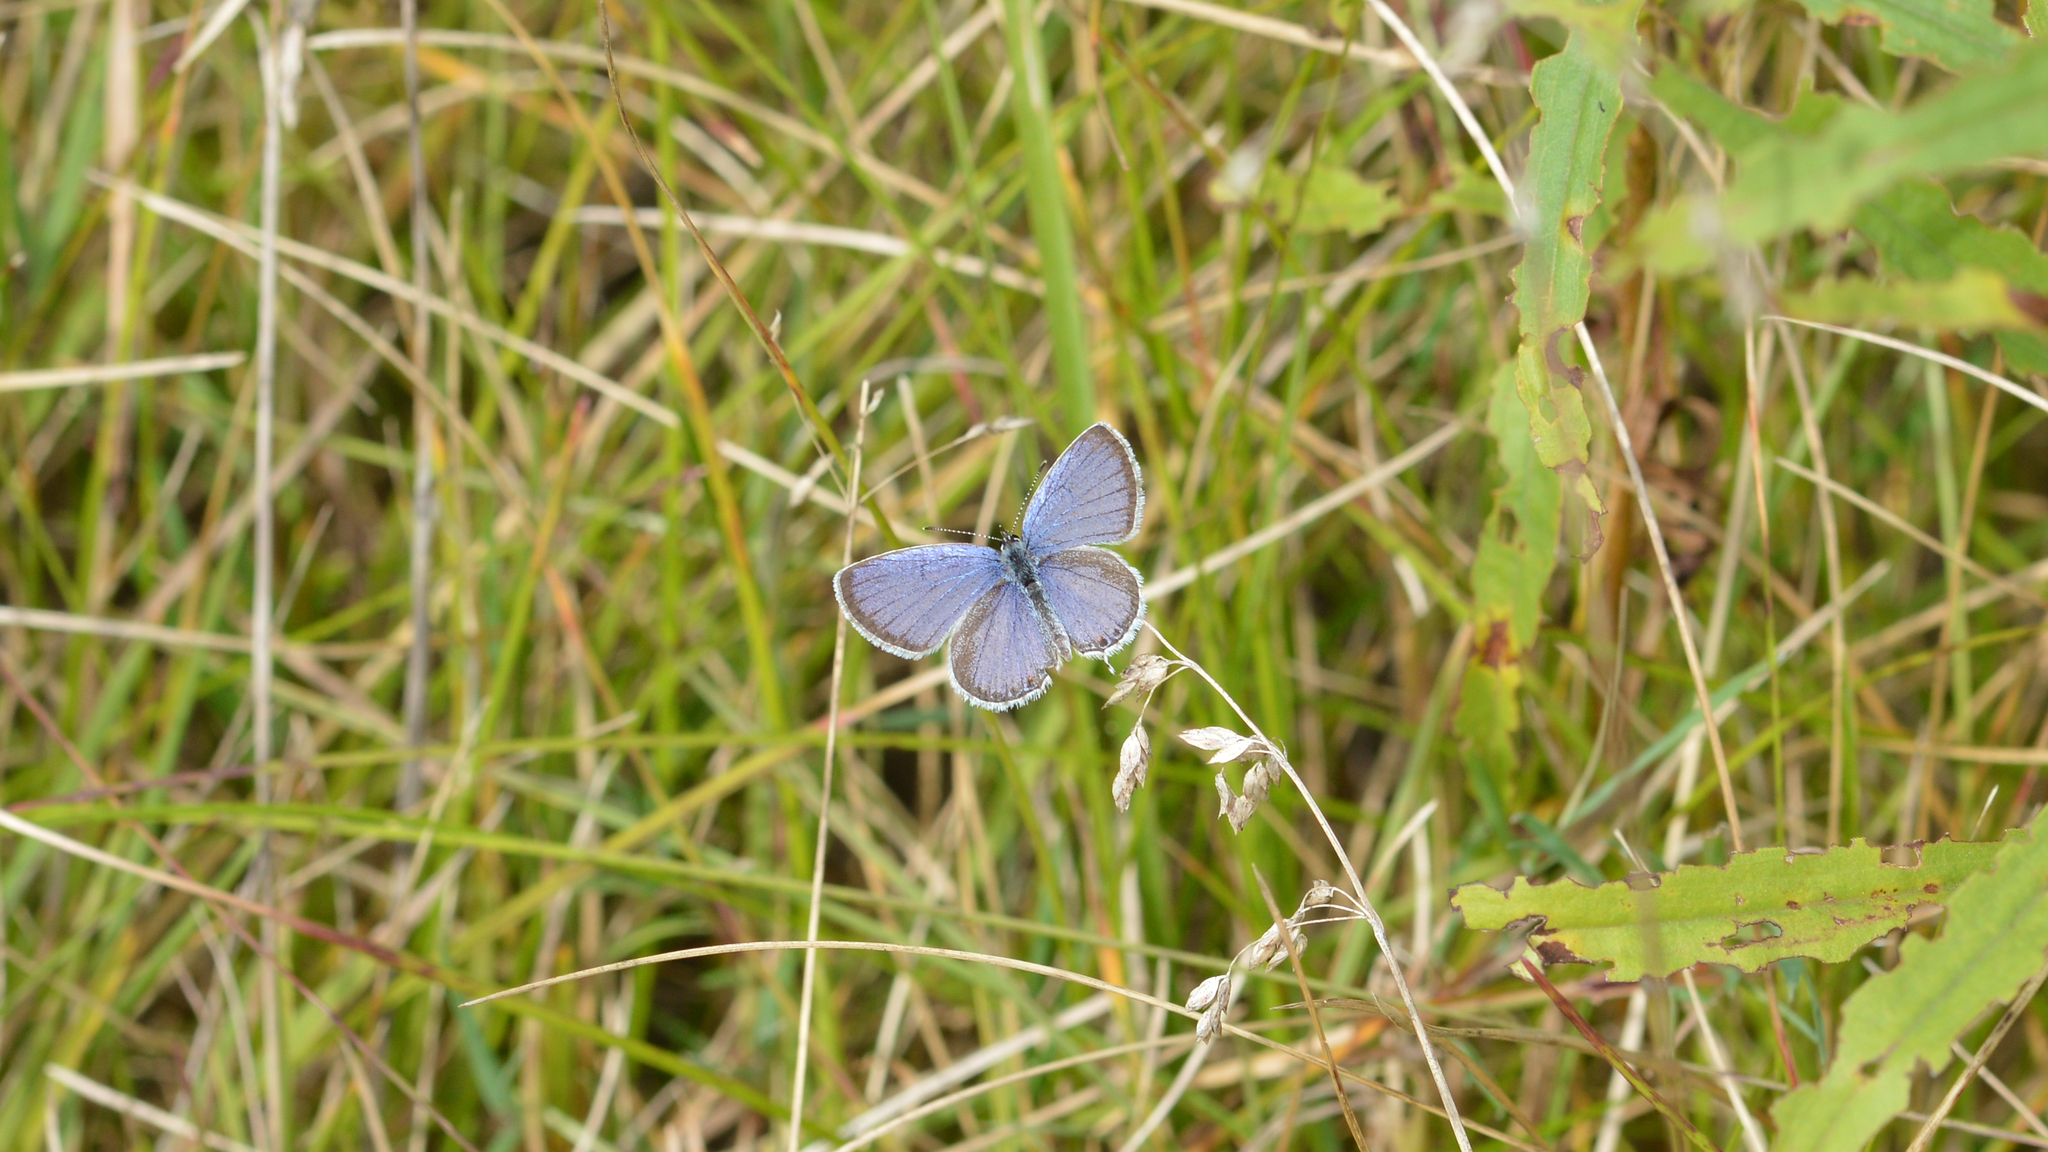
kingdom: Animalia
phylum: Arthropoda
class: Insecta
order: Lepidoptera
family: Lycaenidae
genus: Elkalyce
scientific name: Elkalyce comyntas
